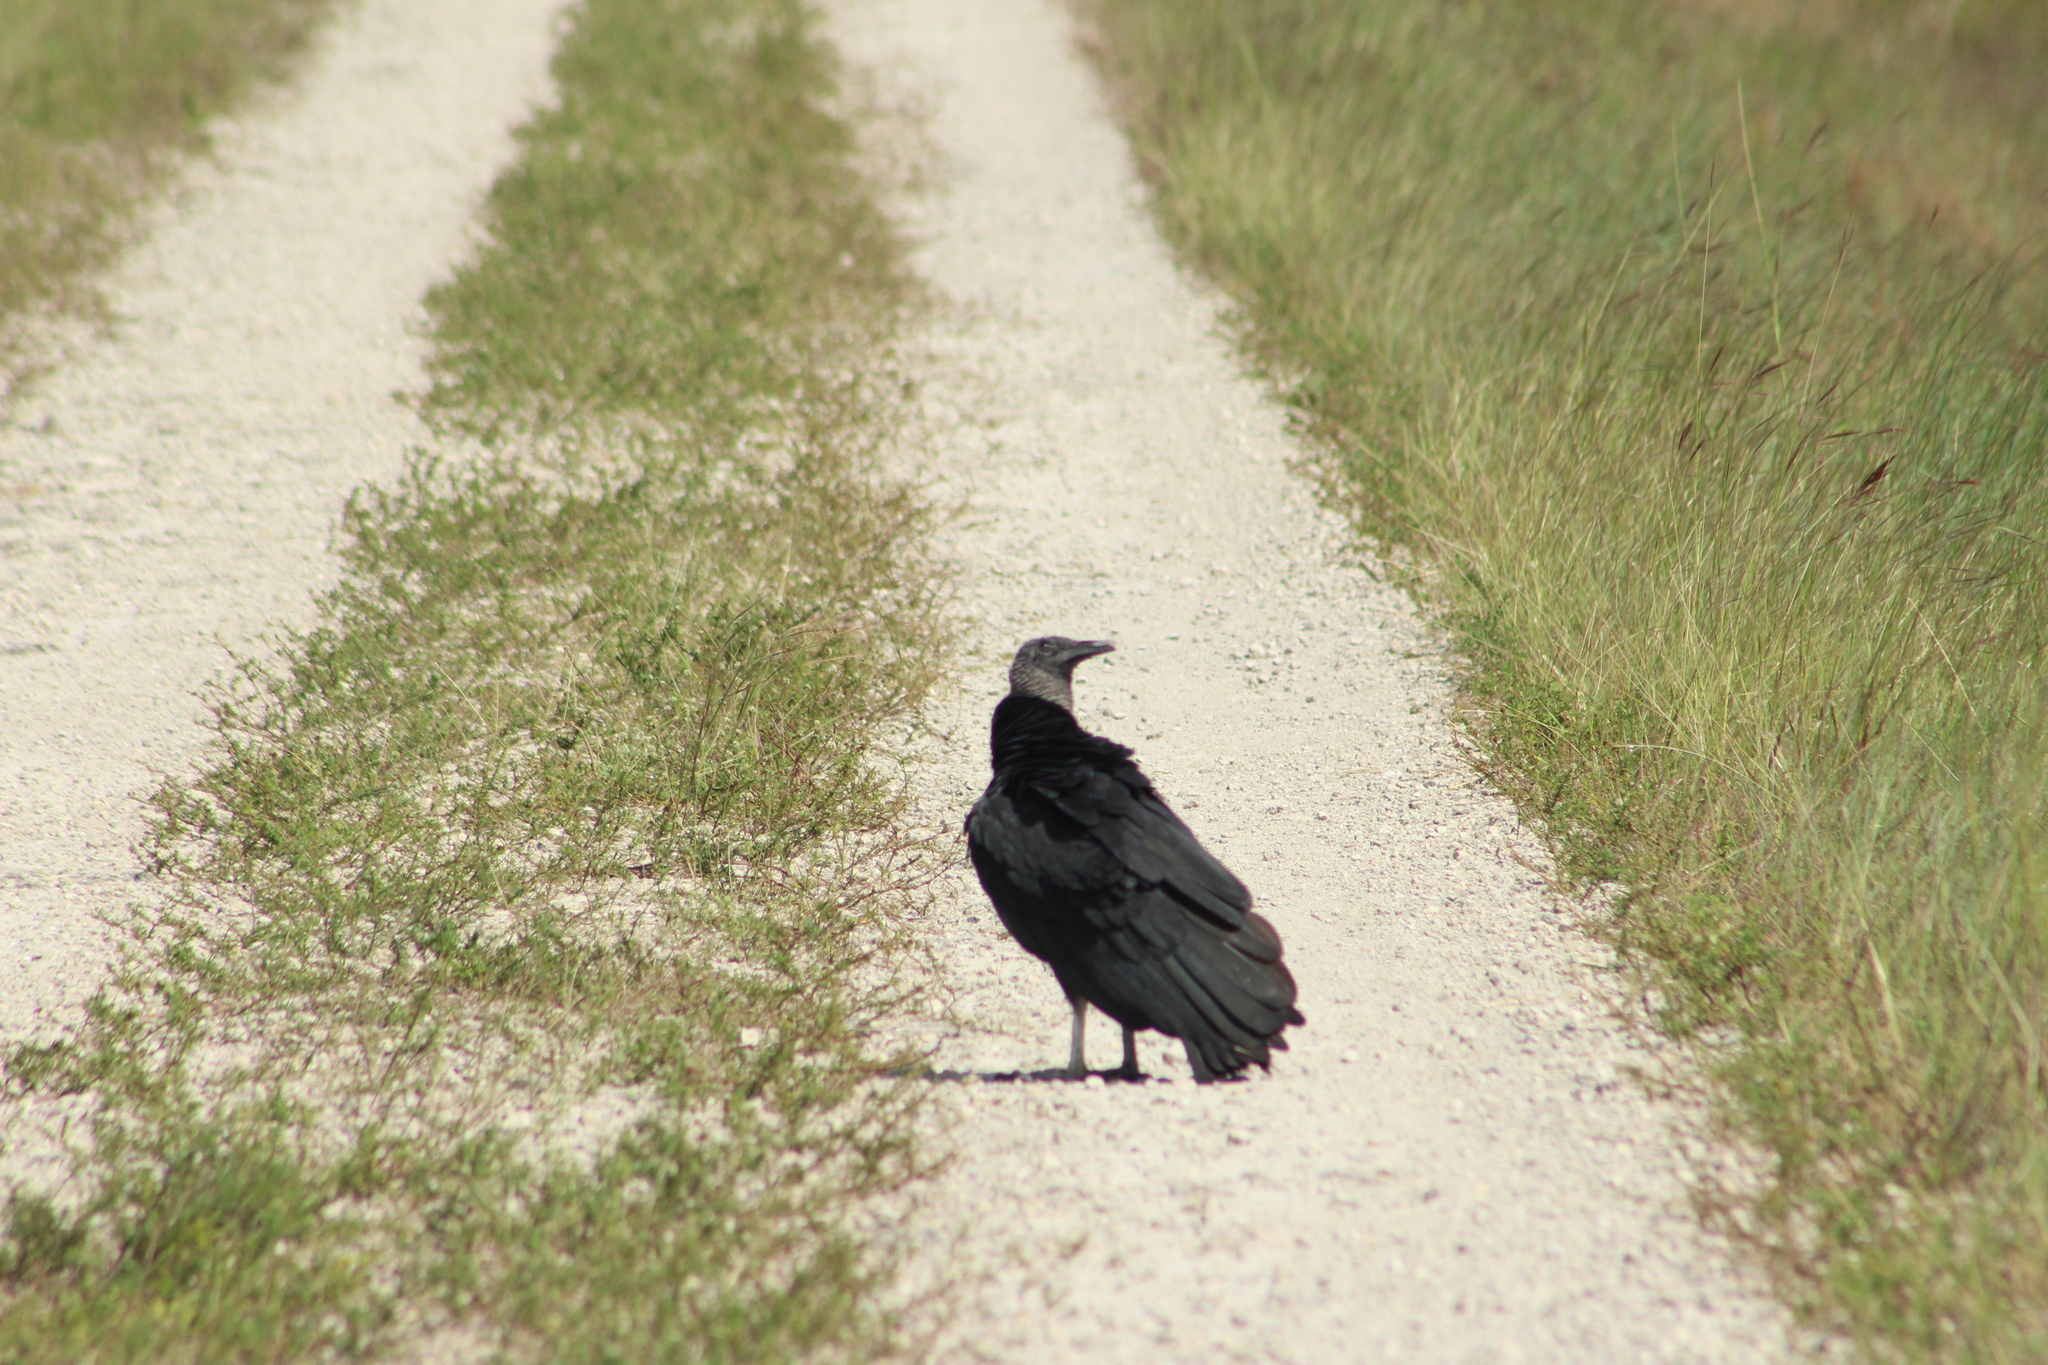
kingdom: Animalia
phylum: Chordata
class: Aves
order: Accipitriformes
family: Cathartidae
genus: Coragyps
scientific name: Coragyps atratus
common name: Black vulture
